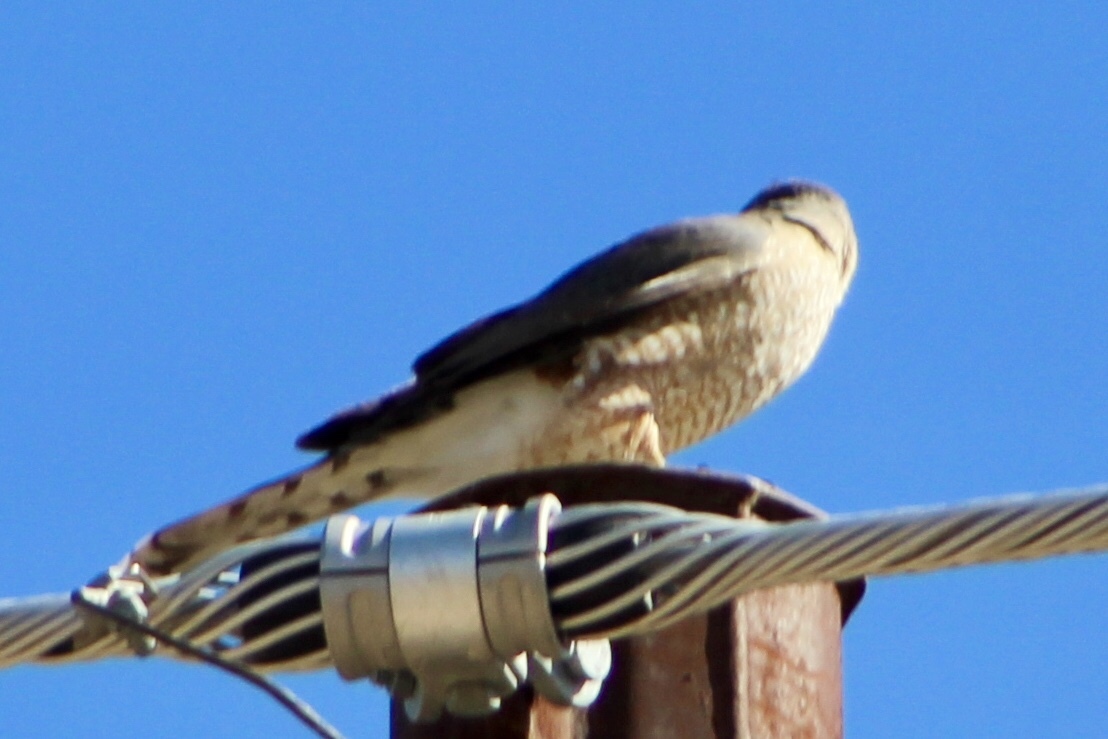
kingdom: Animalia
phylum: Chordata
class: Aves
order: Accipitriformes
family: Accipitridae
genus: Accipiter
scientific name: Accipiter cooperii
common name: Cooper's hawk
